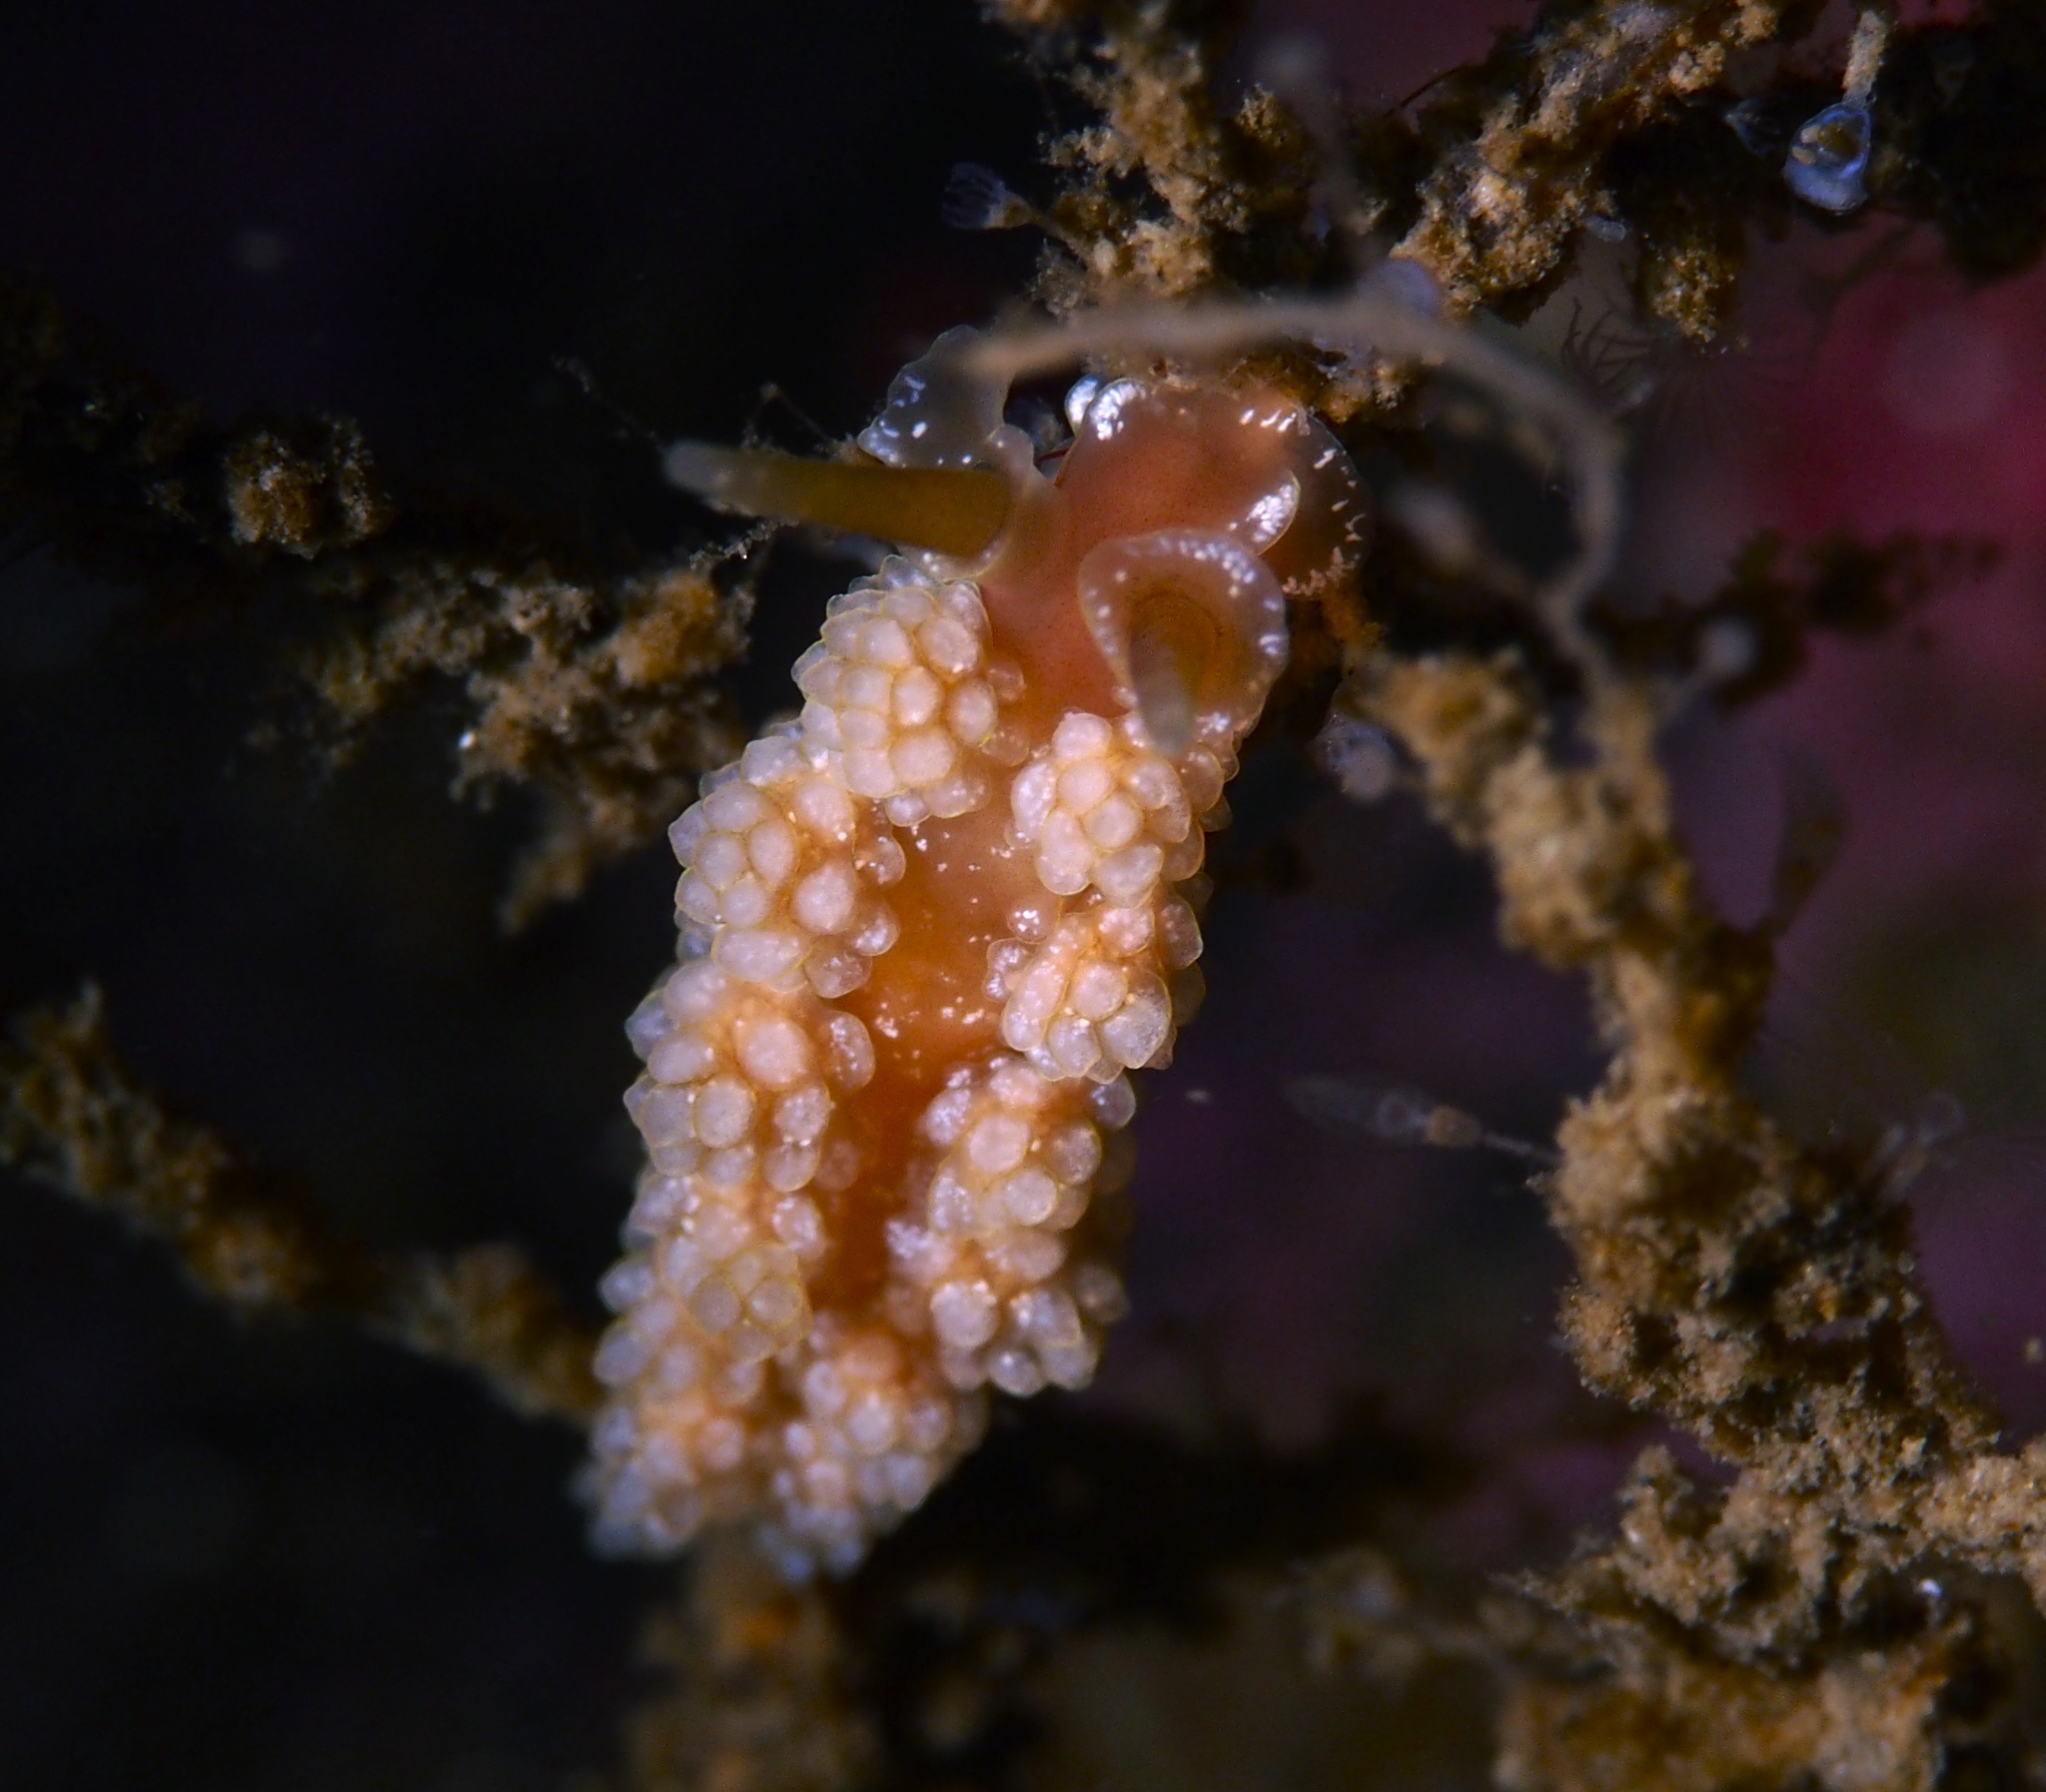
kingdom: Animalia
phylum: Mollusca
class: Gastropoda
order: Nudibranchia
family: Dotidae
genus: Doto
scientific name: Doto fragilis
